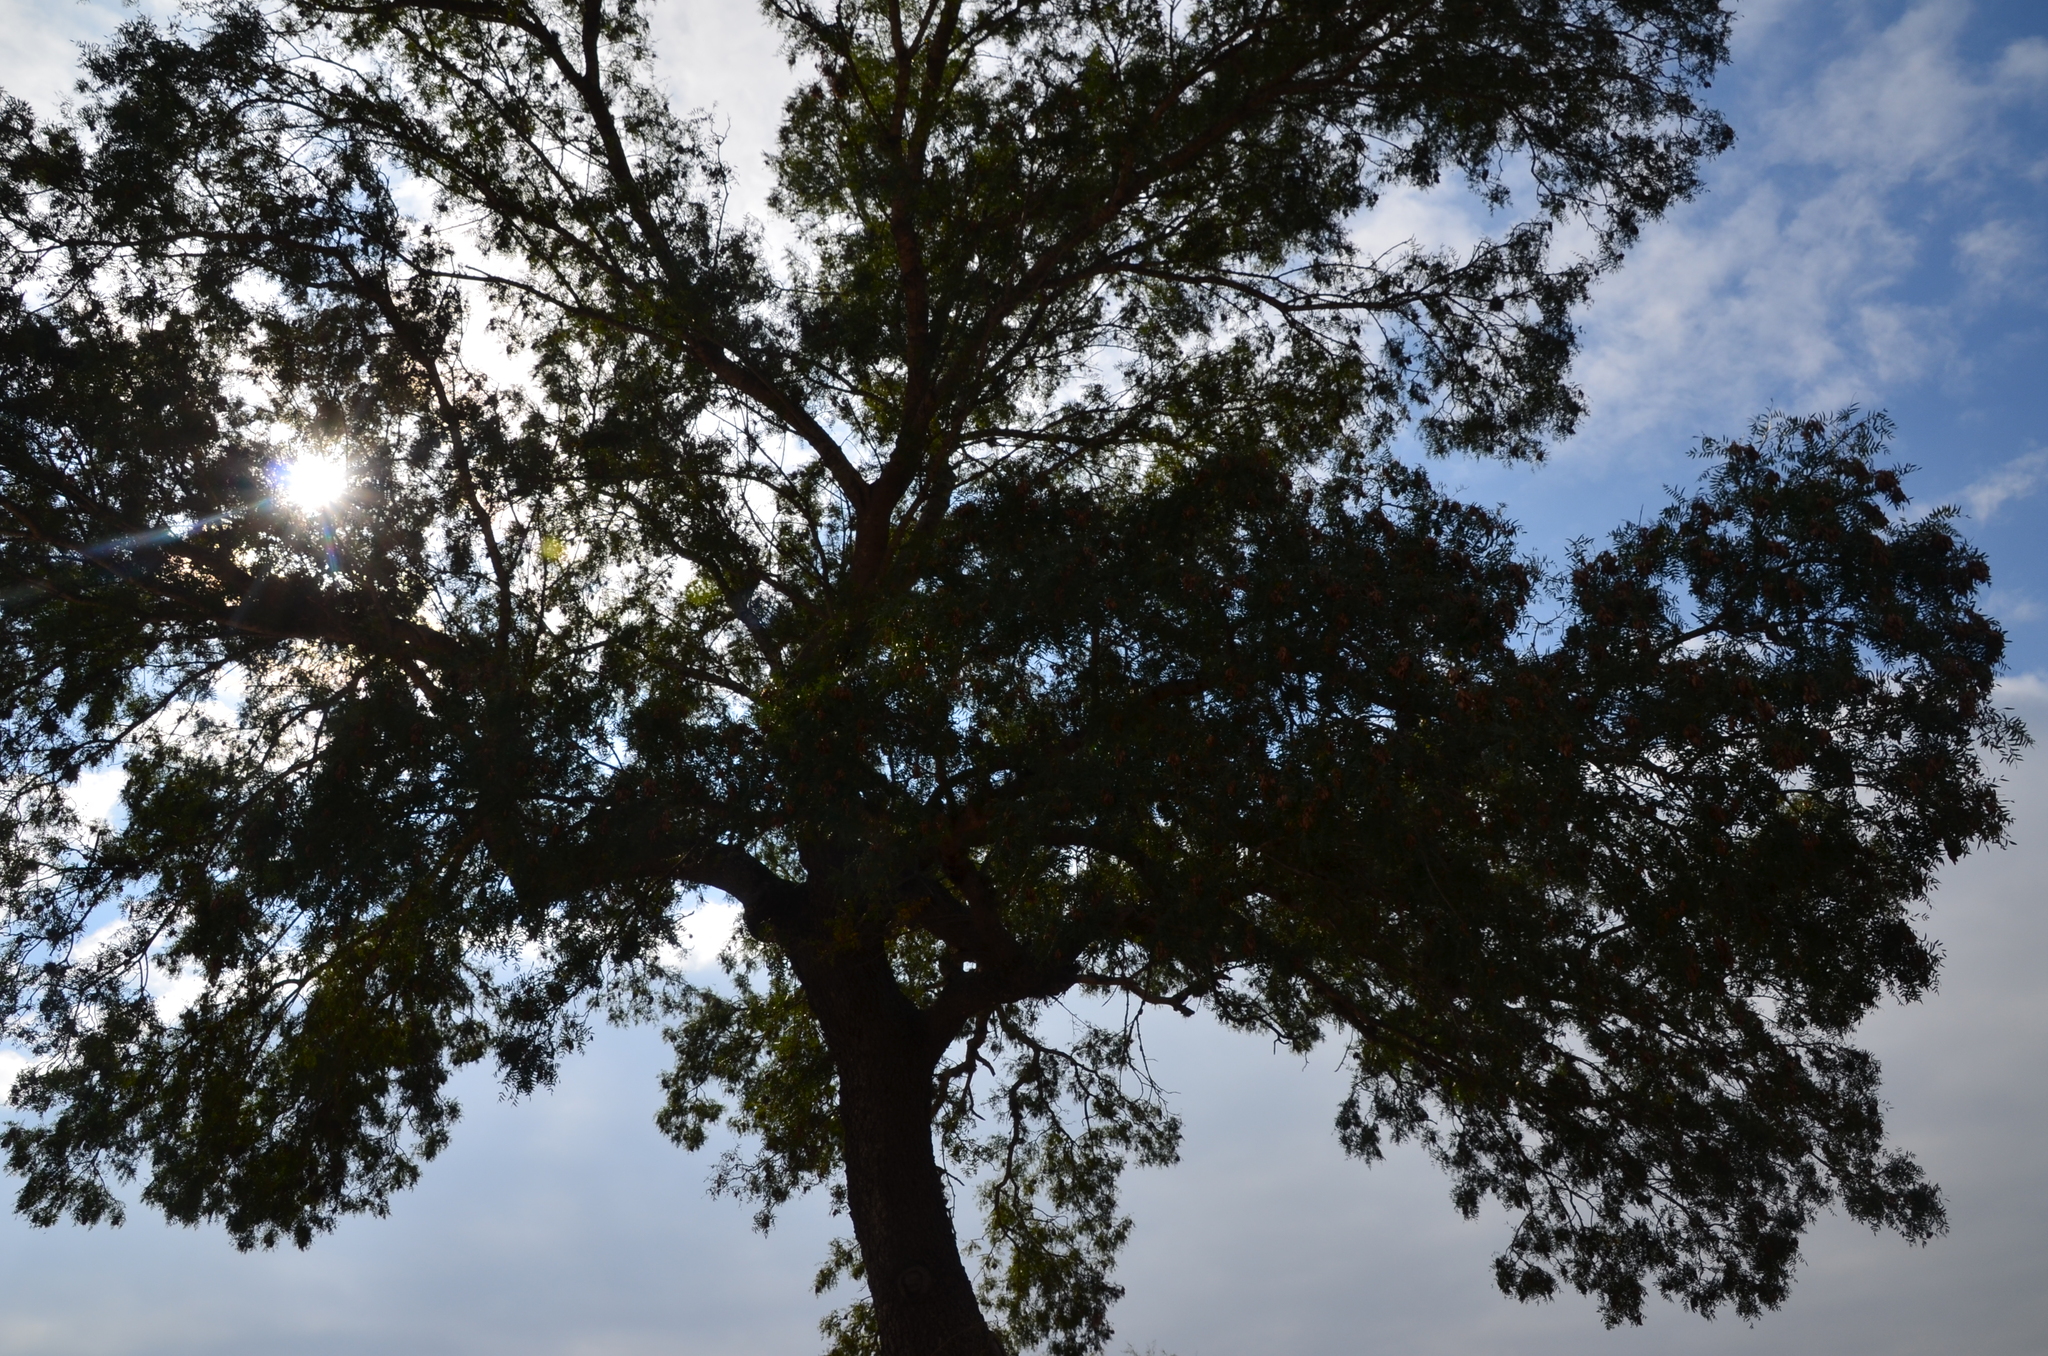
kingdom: Plantae
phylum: Tracheophyta
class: Magnoliopsida
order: Sapindales
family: Anacardiaceae
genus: Schinopsis
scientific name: Schinopsis lorentzii
